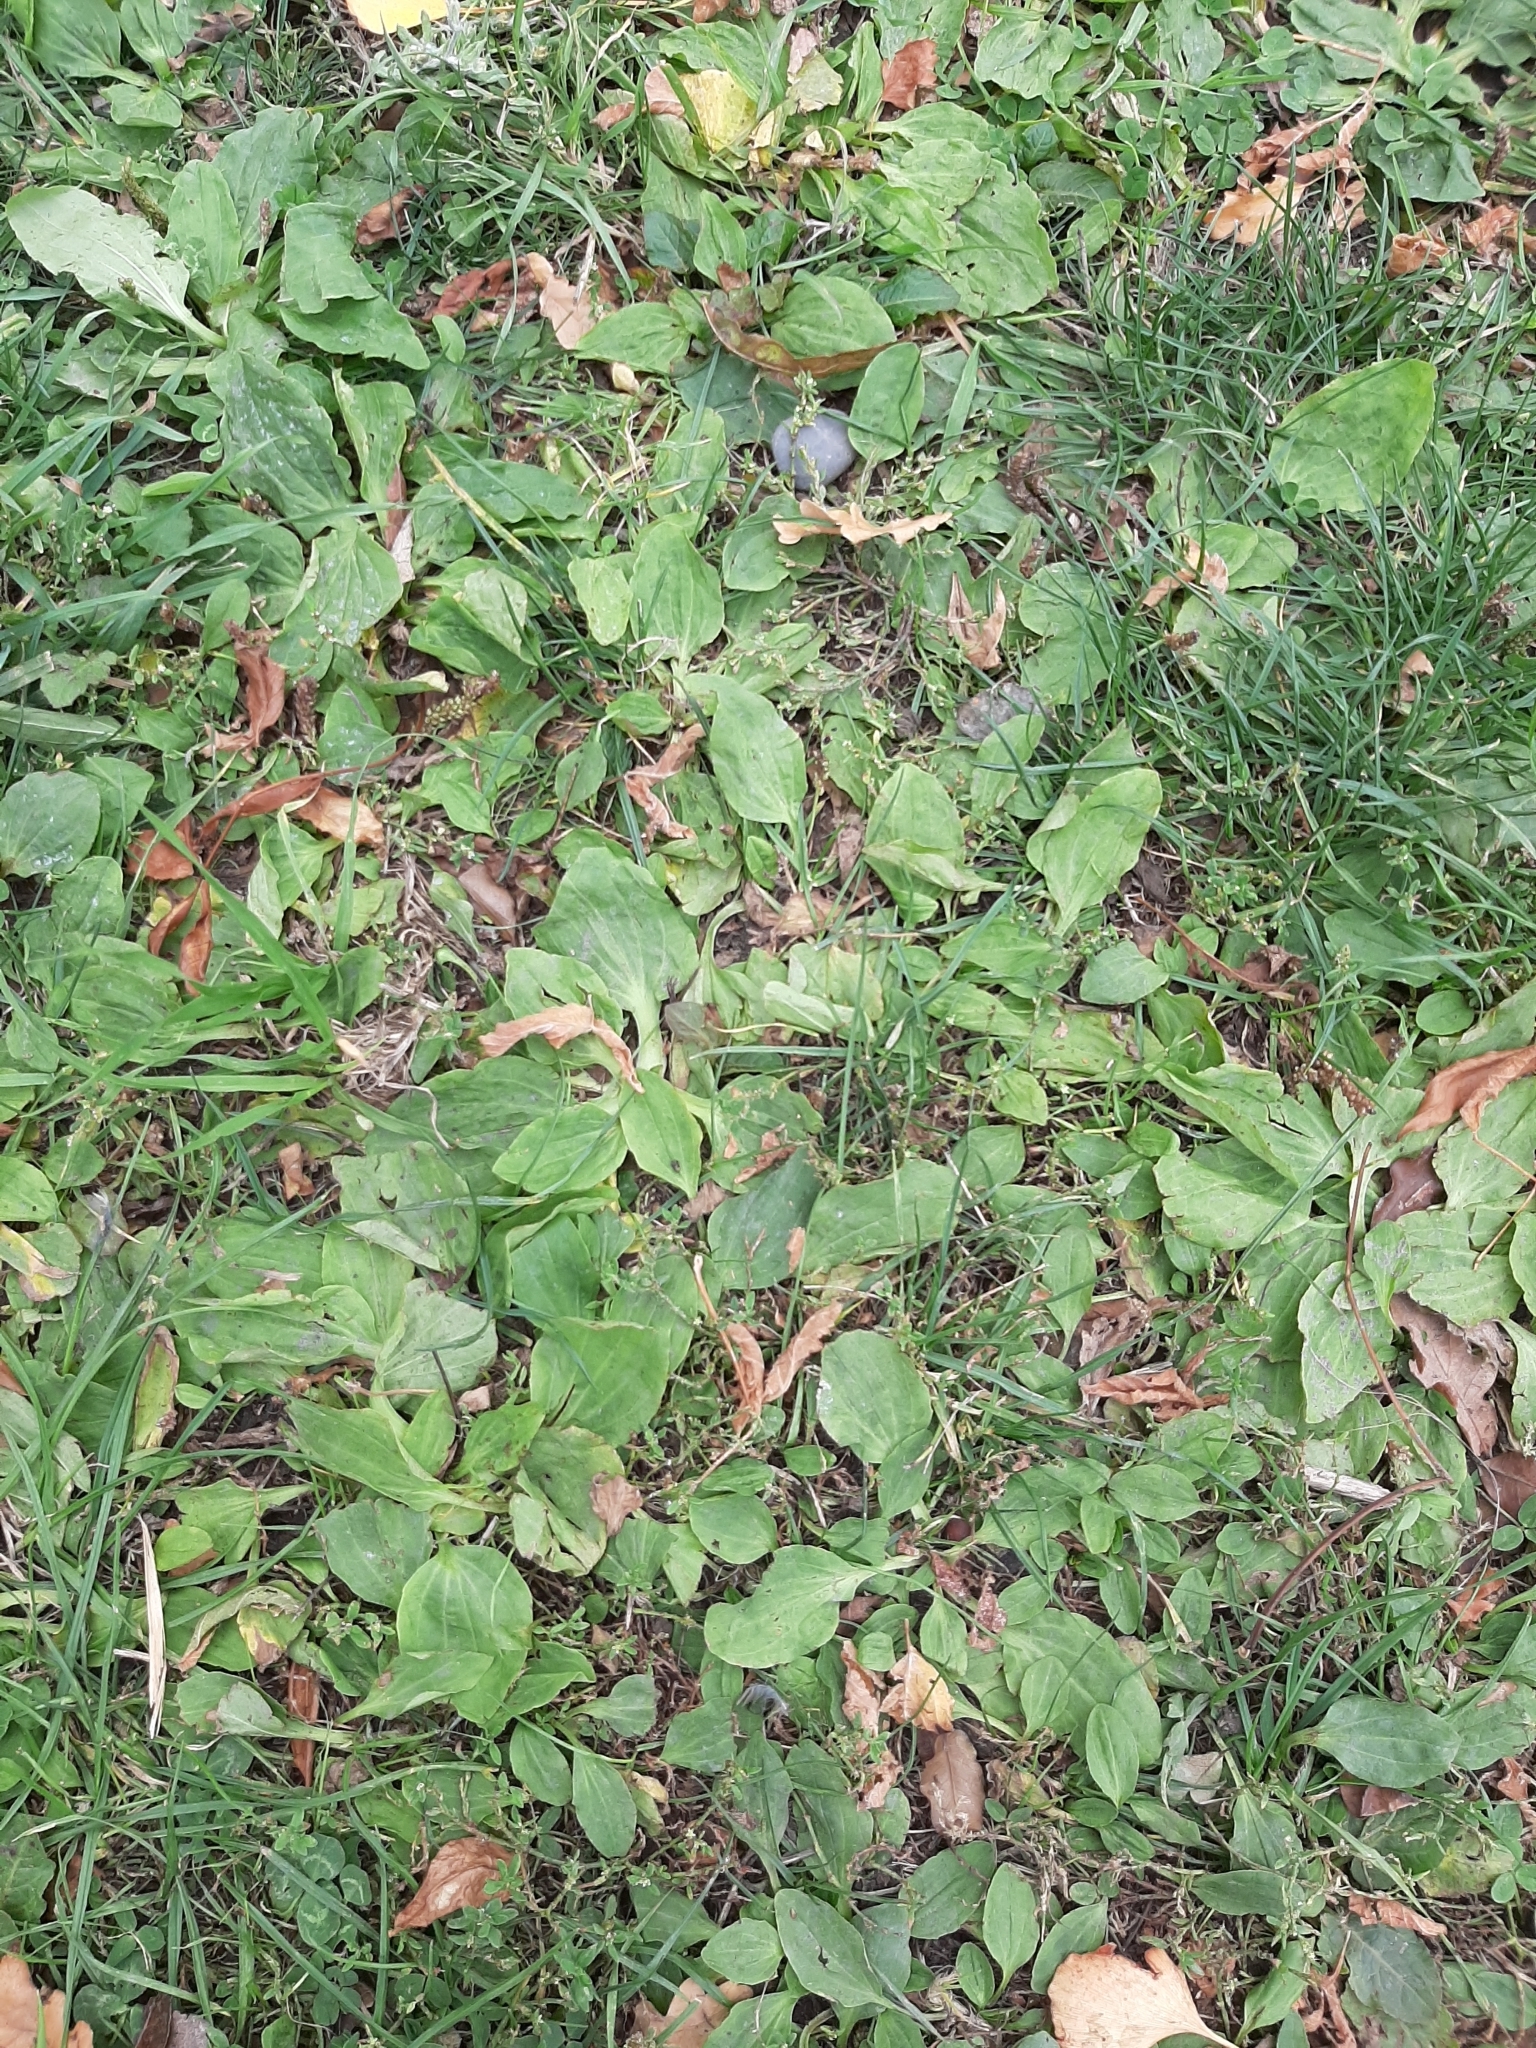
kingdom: Plantae
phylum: Tracheophyta
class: Magnoliopsida
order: Lamiales
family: Plantaginaceae
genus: Plantago
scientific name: Plantago major
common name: Common plantain
